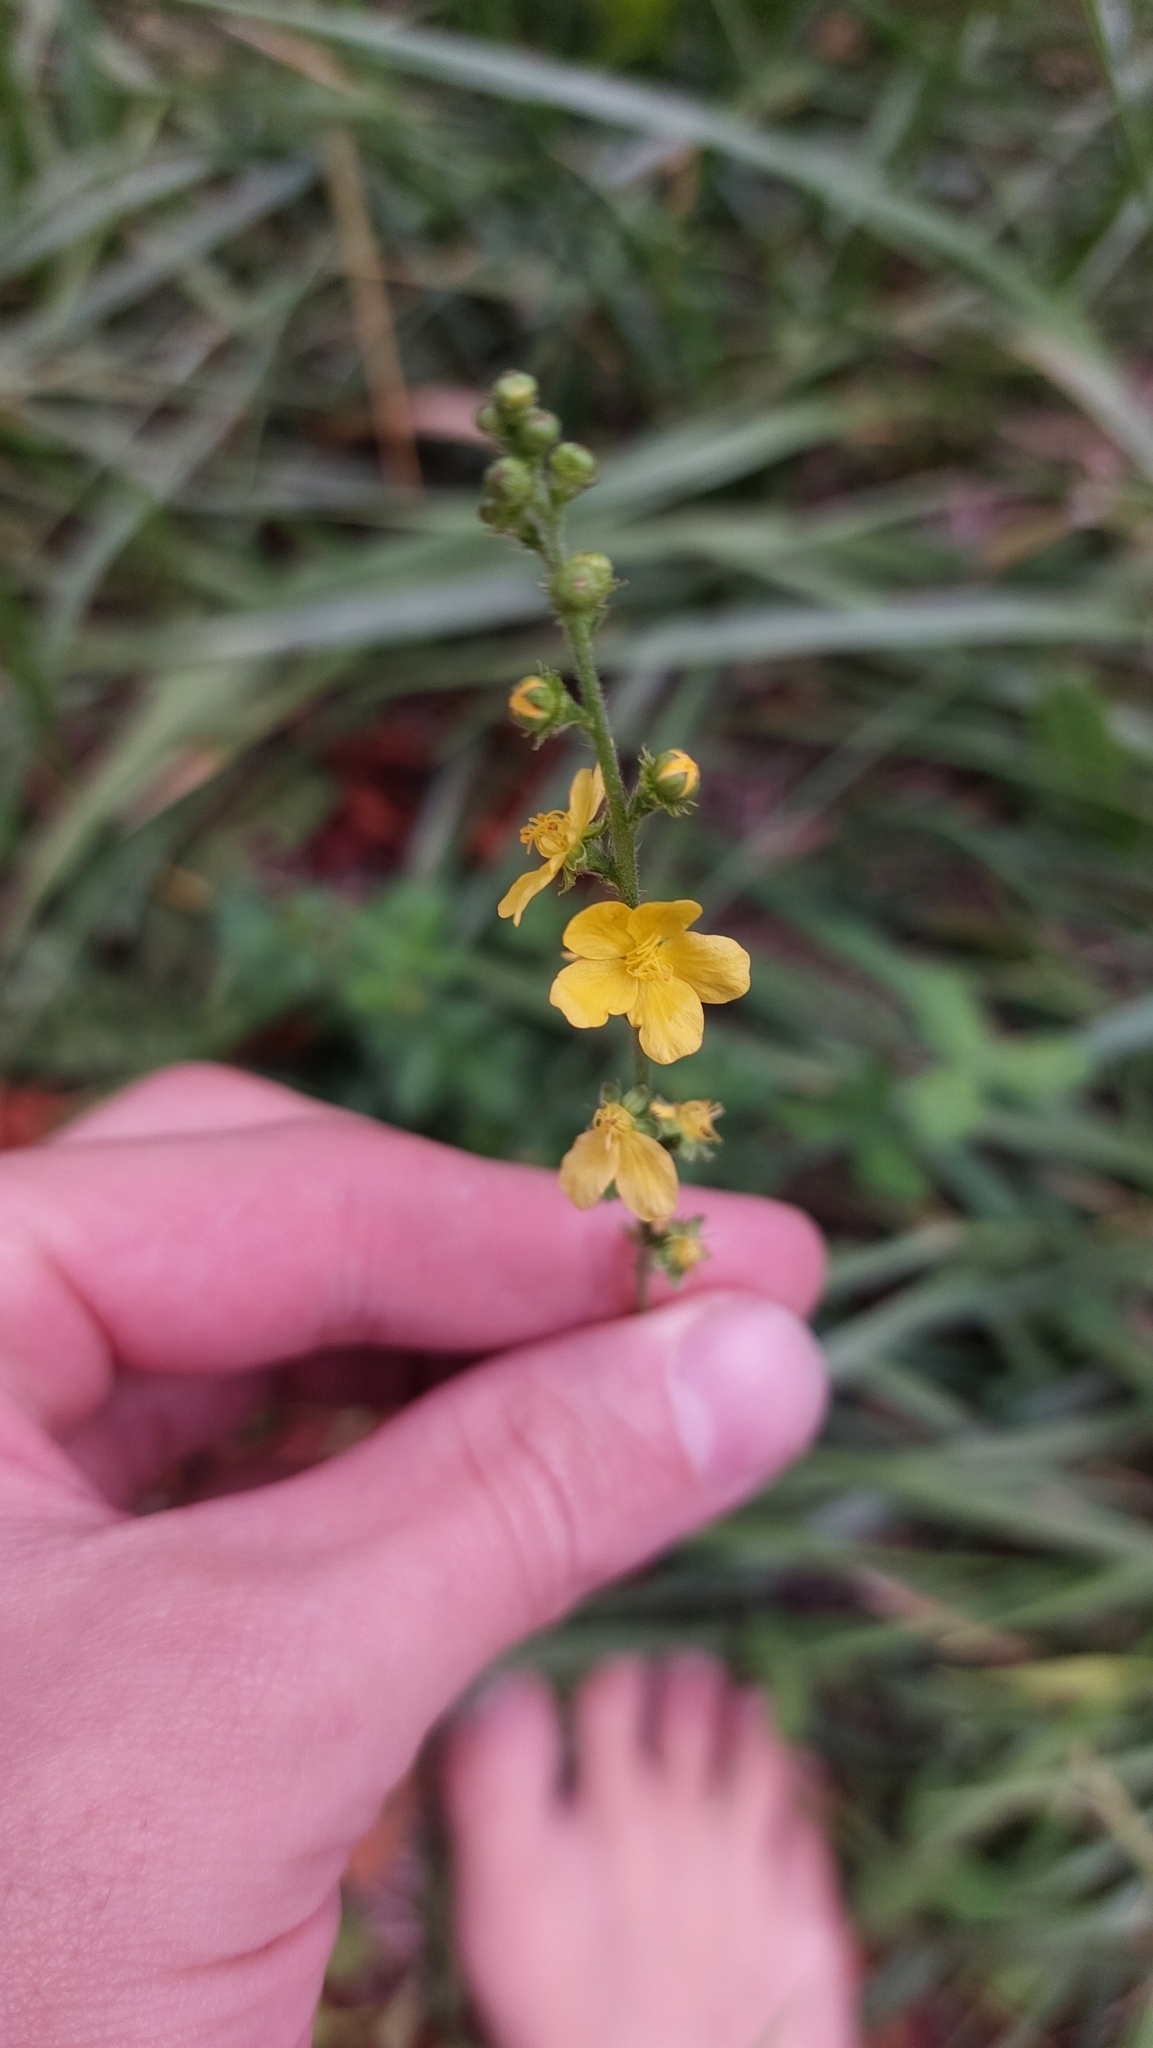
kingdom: Plantae
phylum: Tracheophyta
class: Magnoliopsida
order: Rosales
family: Rosaceae
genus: Agrimonia
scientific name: Agrimonia eupatoria
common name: Agrimony
